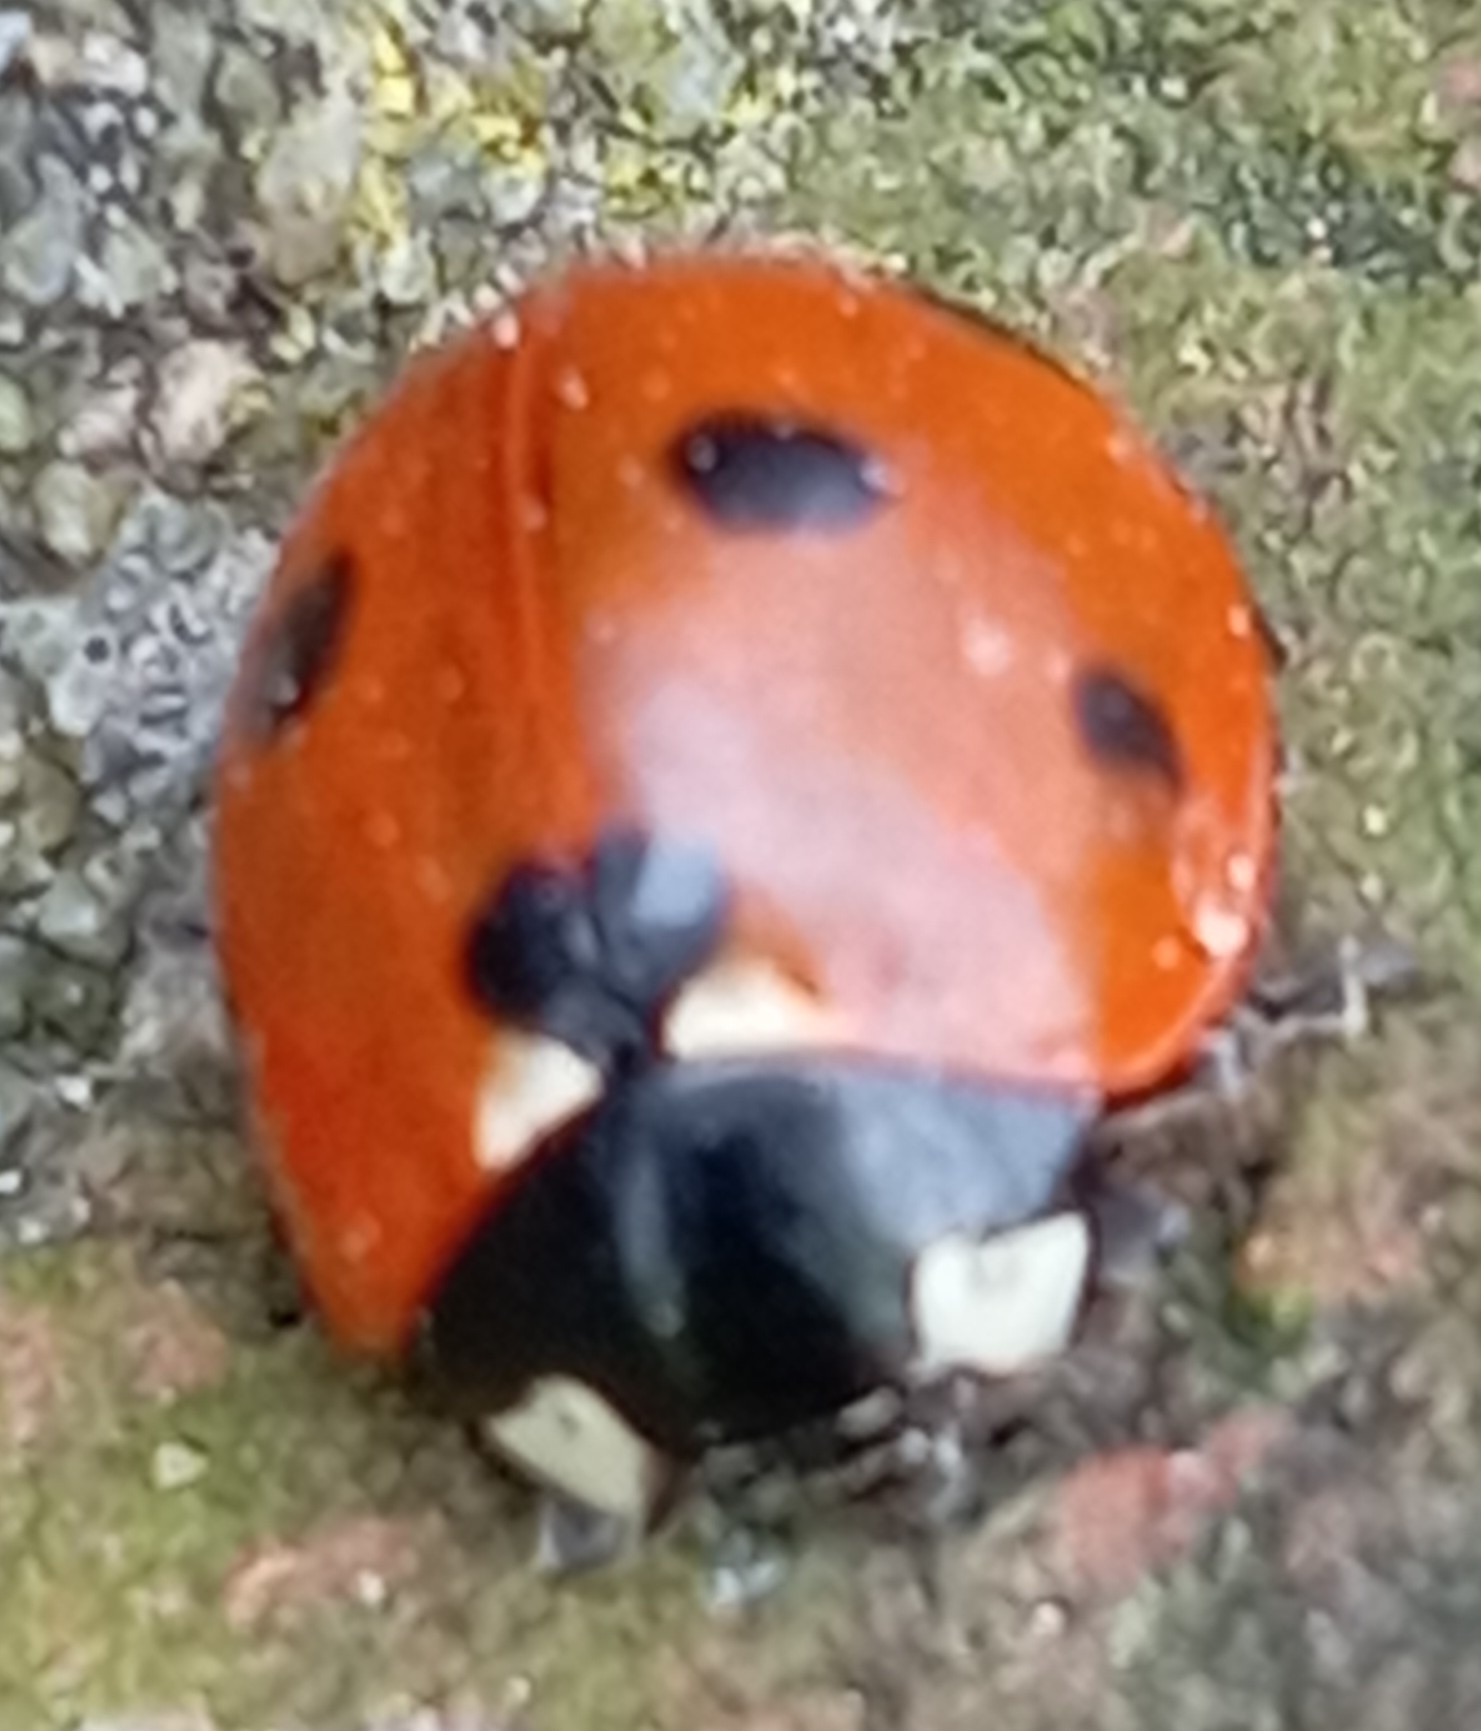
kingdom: Animalia
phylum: Arthropoda
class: Insecta
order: Coleoptera
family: Coccinellidae
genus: Coccinella
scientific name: Coccinella septempunctata
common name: Sevenspotted lady beetle
